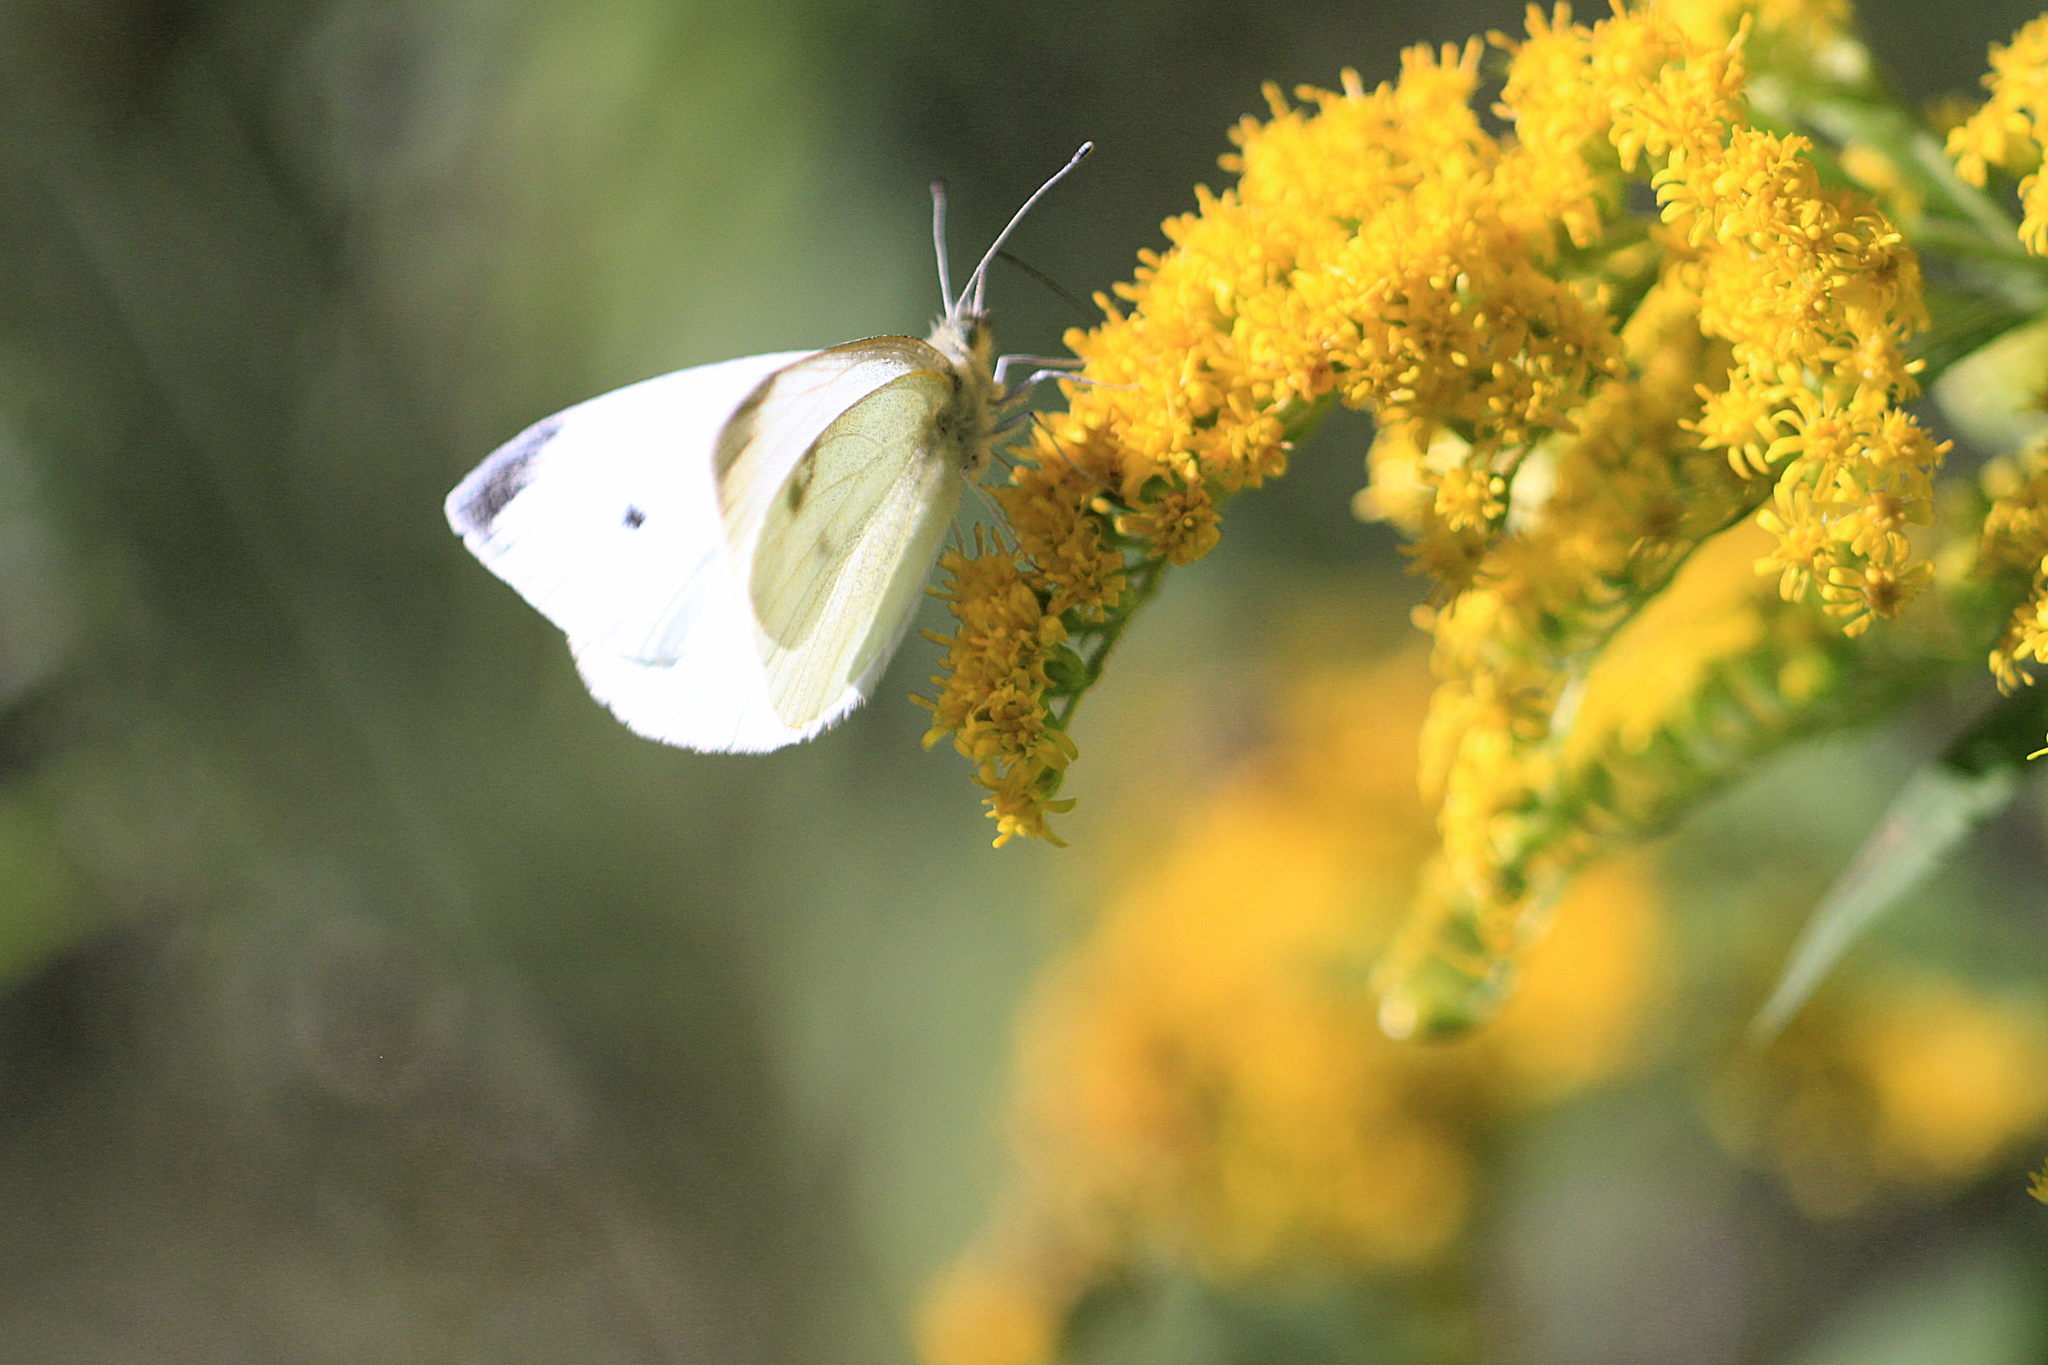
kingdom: Animalia
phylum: Arthropoda
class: Insecta
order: Lepidoptera
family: Pieridae
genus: Pieris
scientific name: Pieris rapae
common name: Small white
